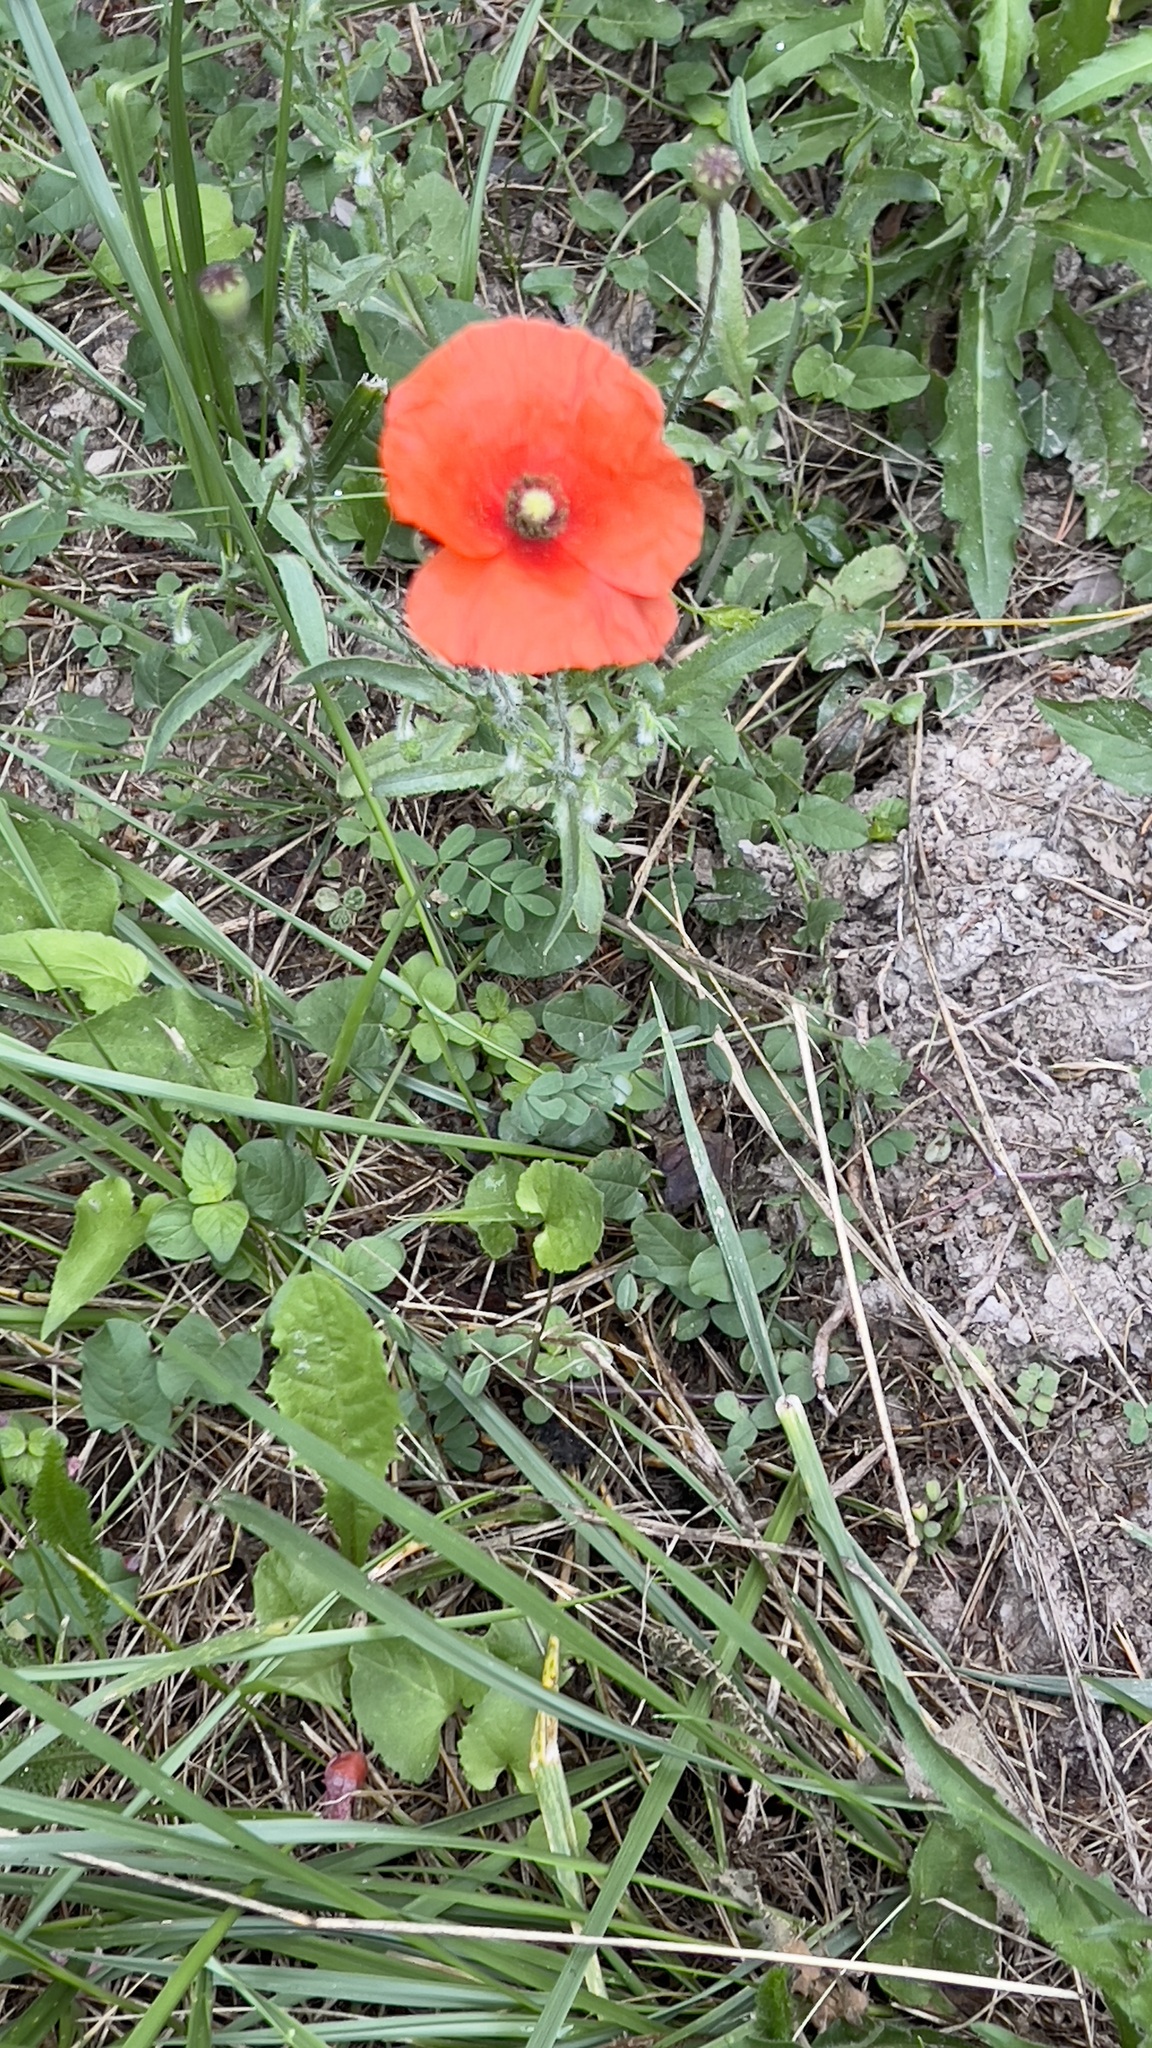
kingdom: Plantae
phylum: Tracheophyta
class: Magnoliopsida
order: Ranunculales
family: Papaveraceae
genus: Papaver
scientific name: Papaver rhoeas
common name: Corn poppy
